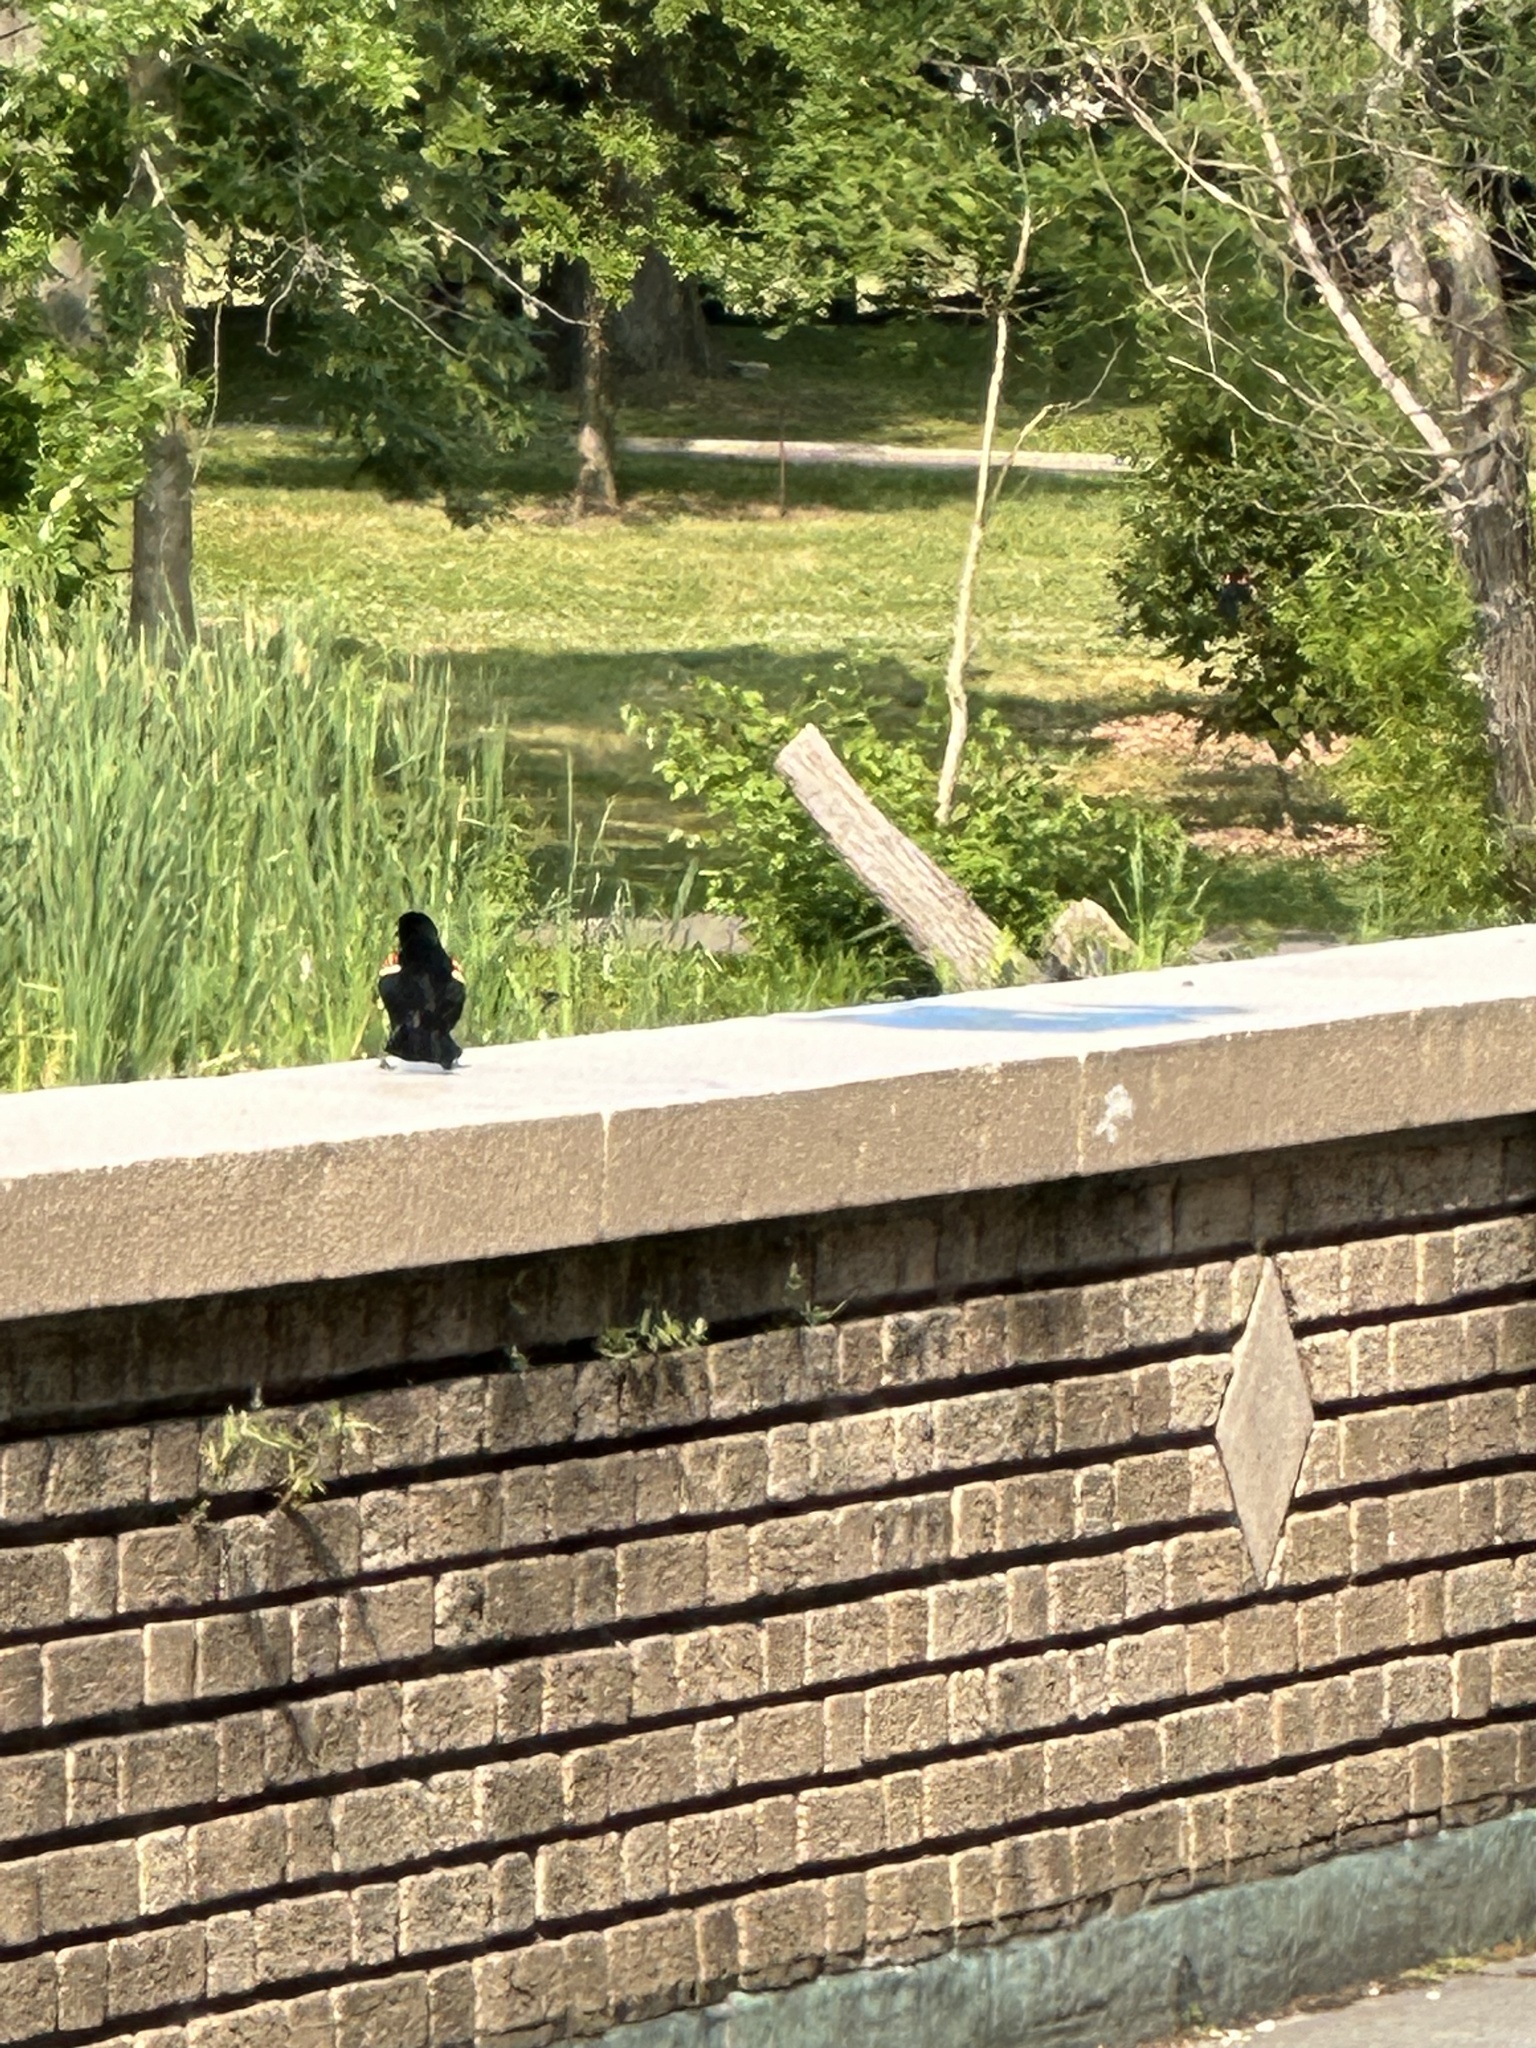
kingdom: Animalia
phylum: Chordata
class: Aves
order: Passeriformes
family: Icteridae
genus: Agelaius
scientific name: Agelaius phoeniceus
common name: Red-winged blackbird
